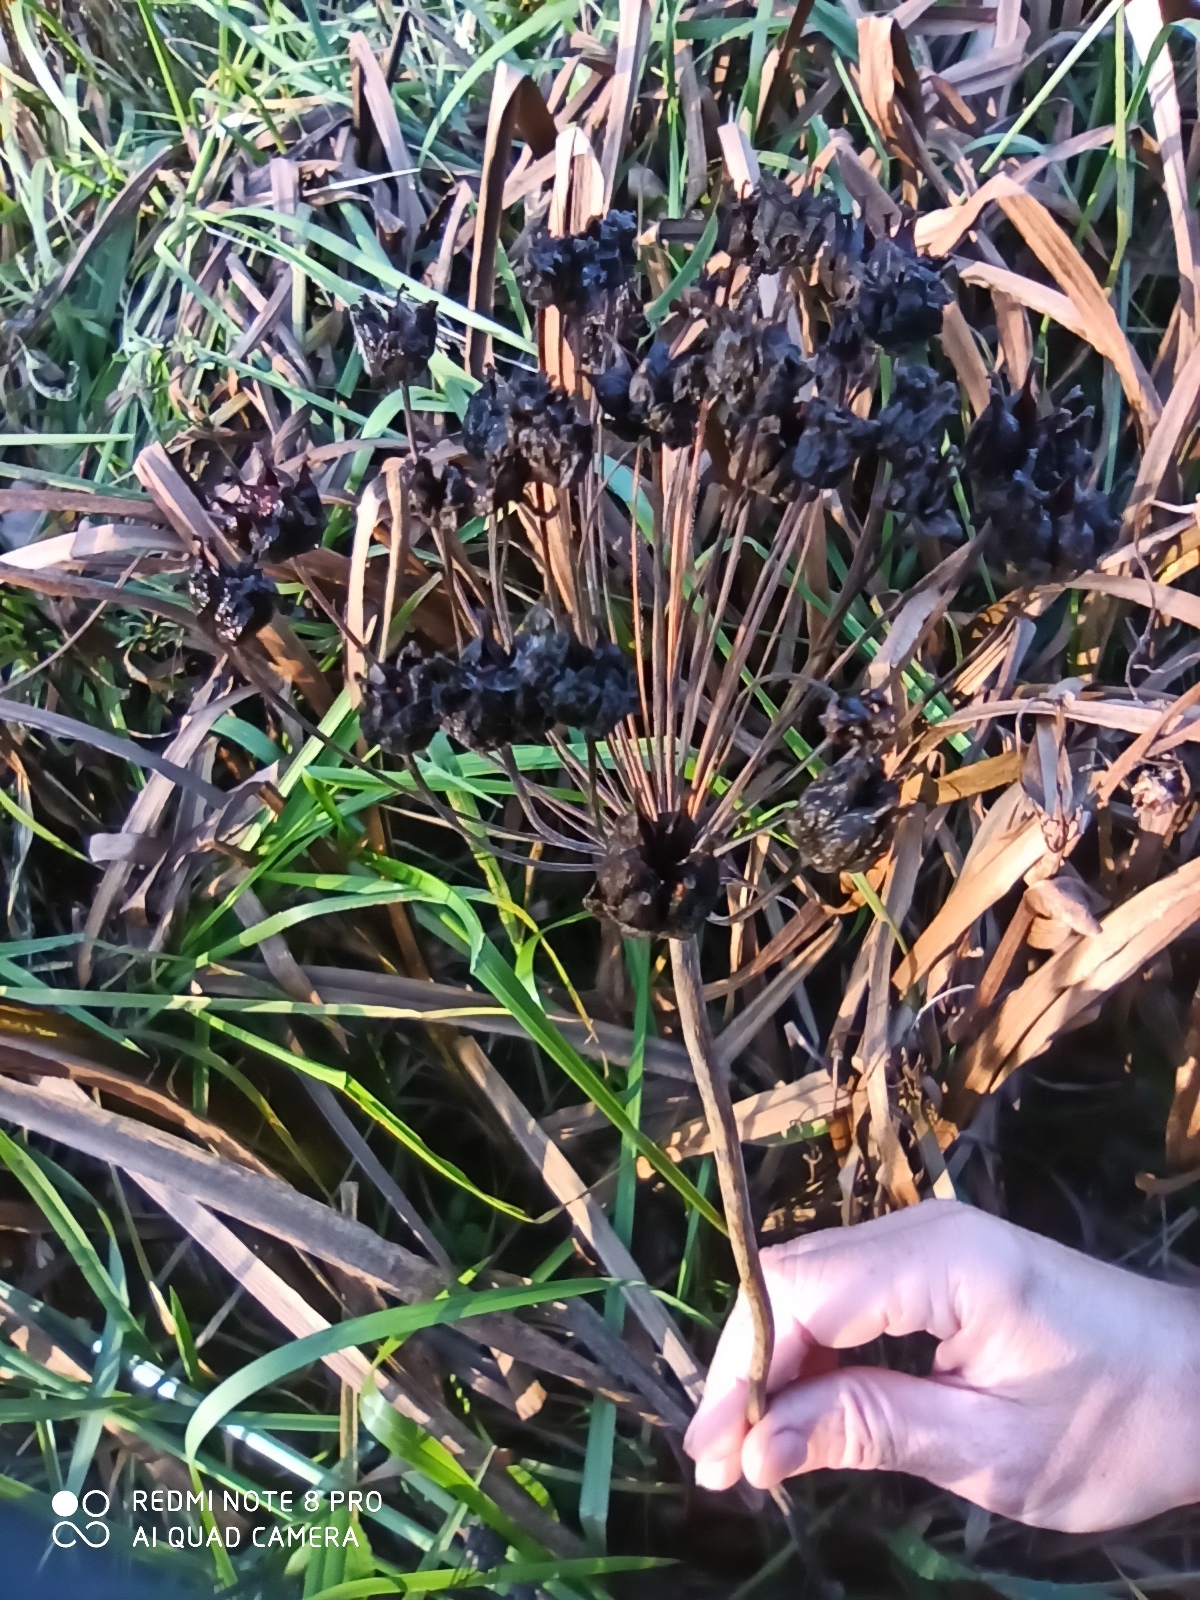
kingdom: Plantae
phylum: Tracheophyta
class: Liliopsida
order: Alismatales
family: Butomaceae
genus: Butomus
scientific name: Butomus umbellatus
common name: Flowering-rush
